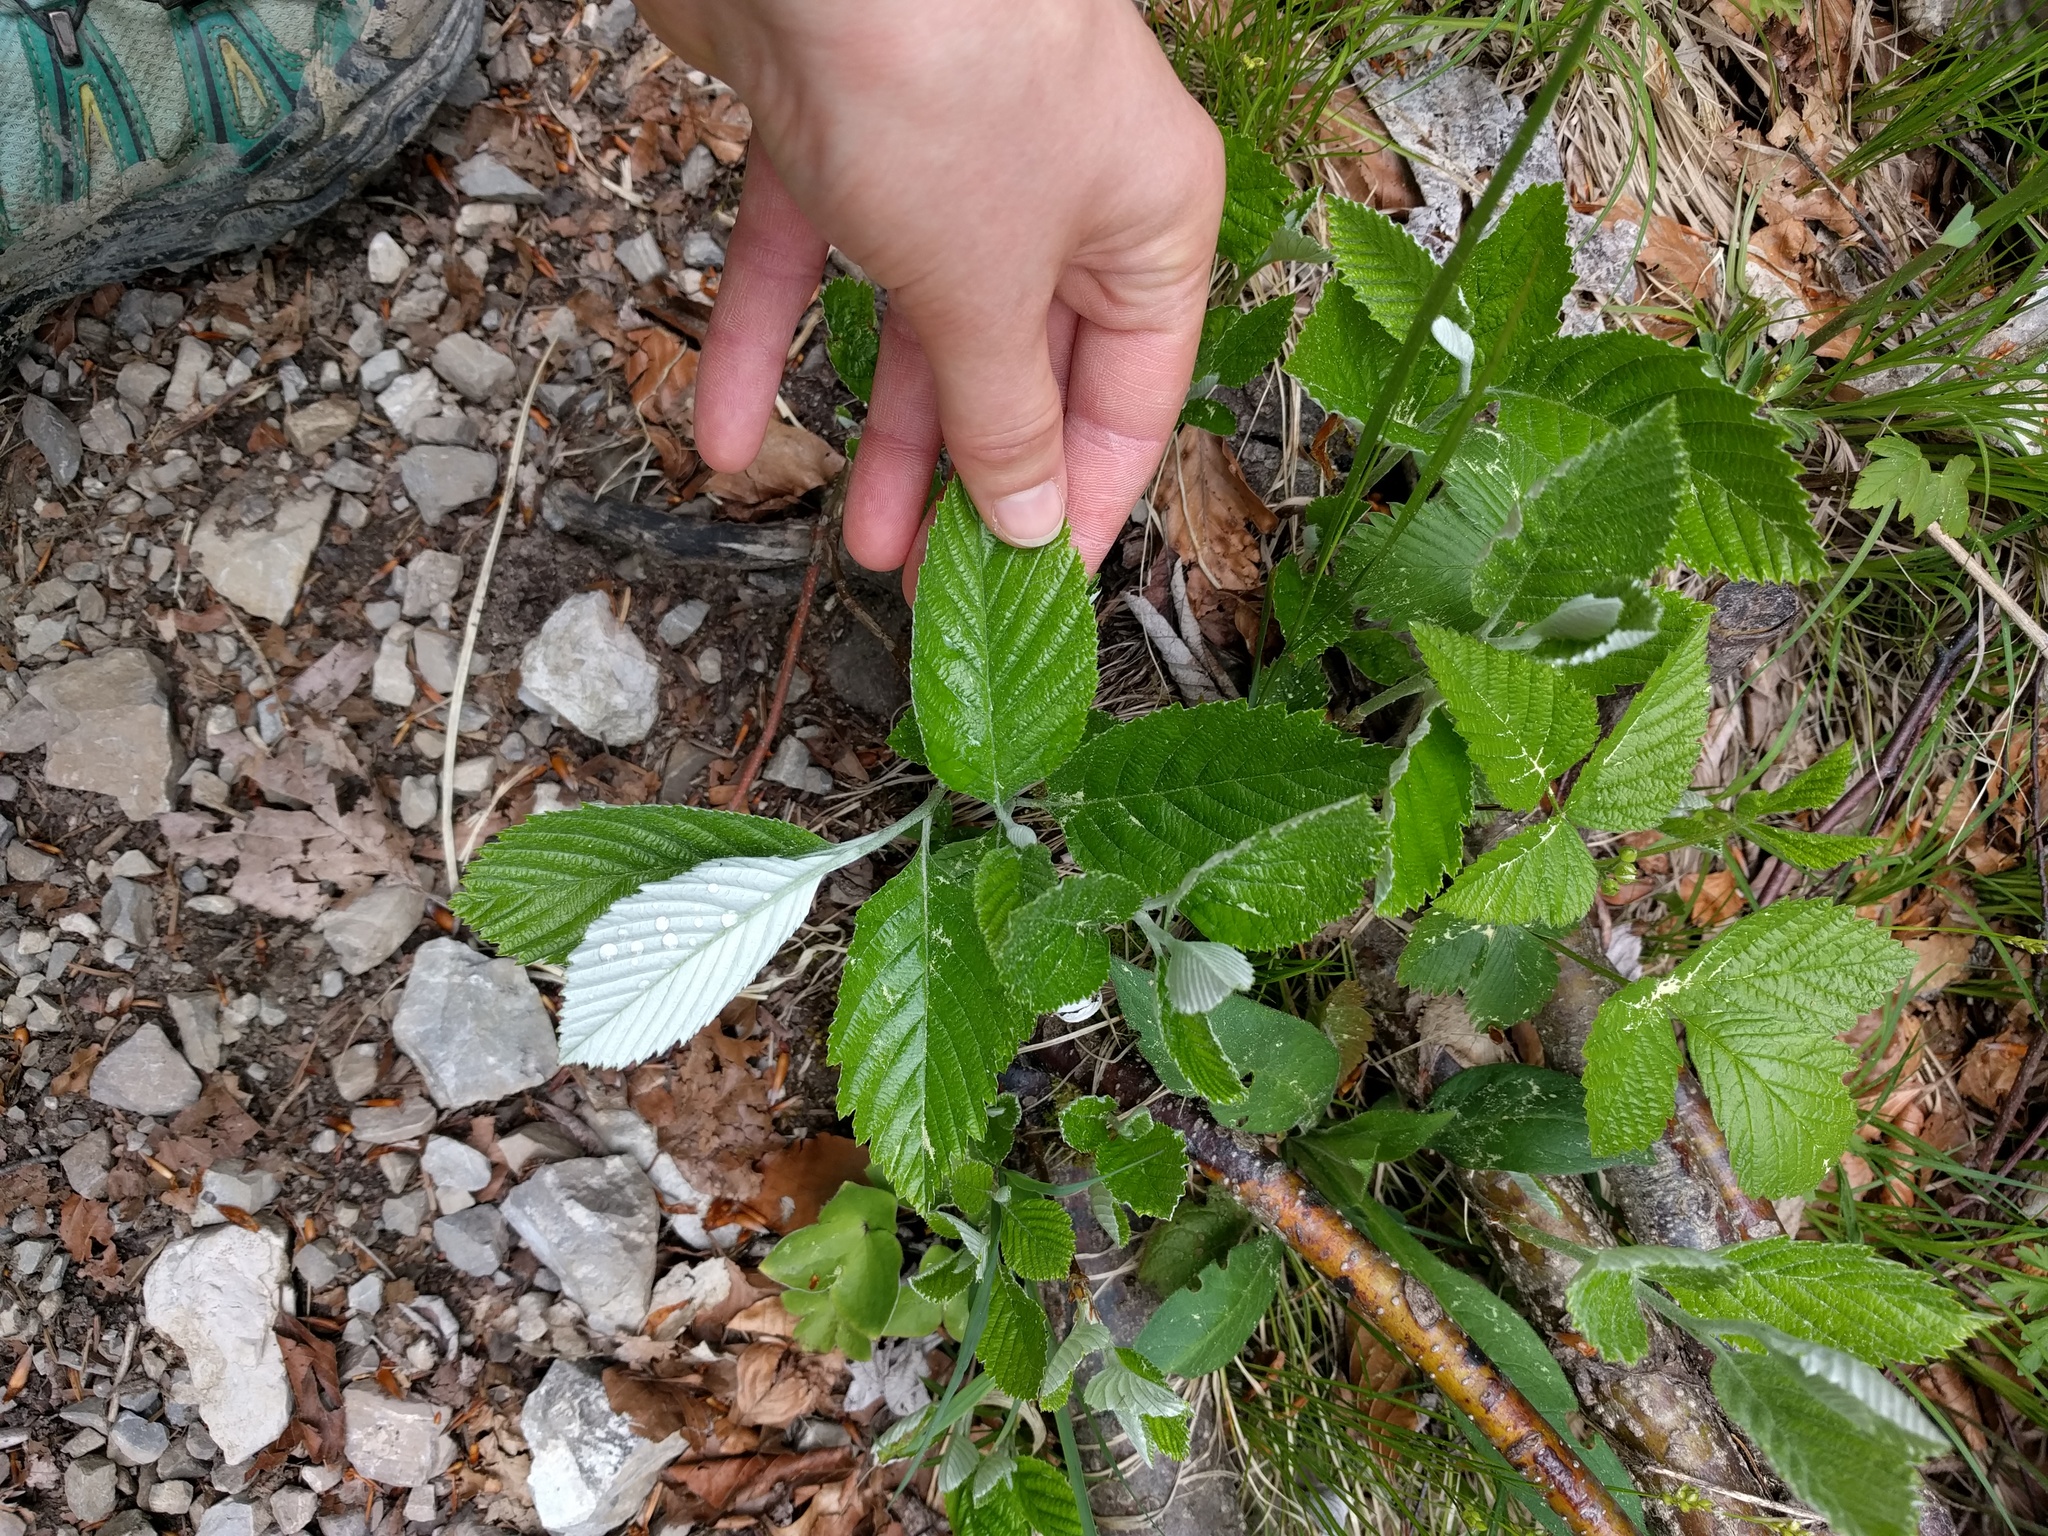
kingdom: Plantae
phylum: Tracheophyta
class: Magnoliopsida
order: Rosales
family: Rosaceae
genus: Aria
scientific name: Aria edulis
